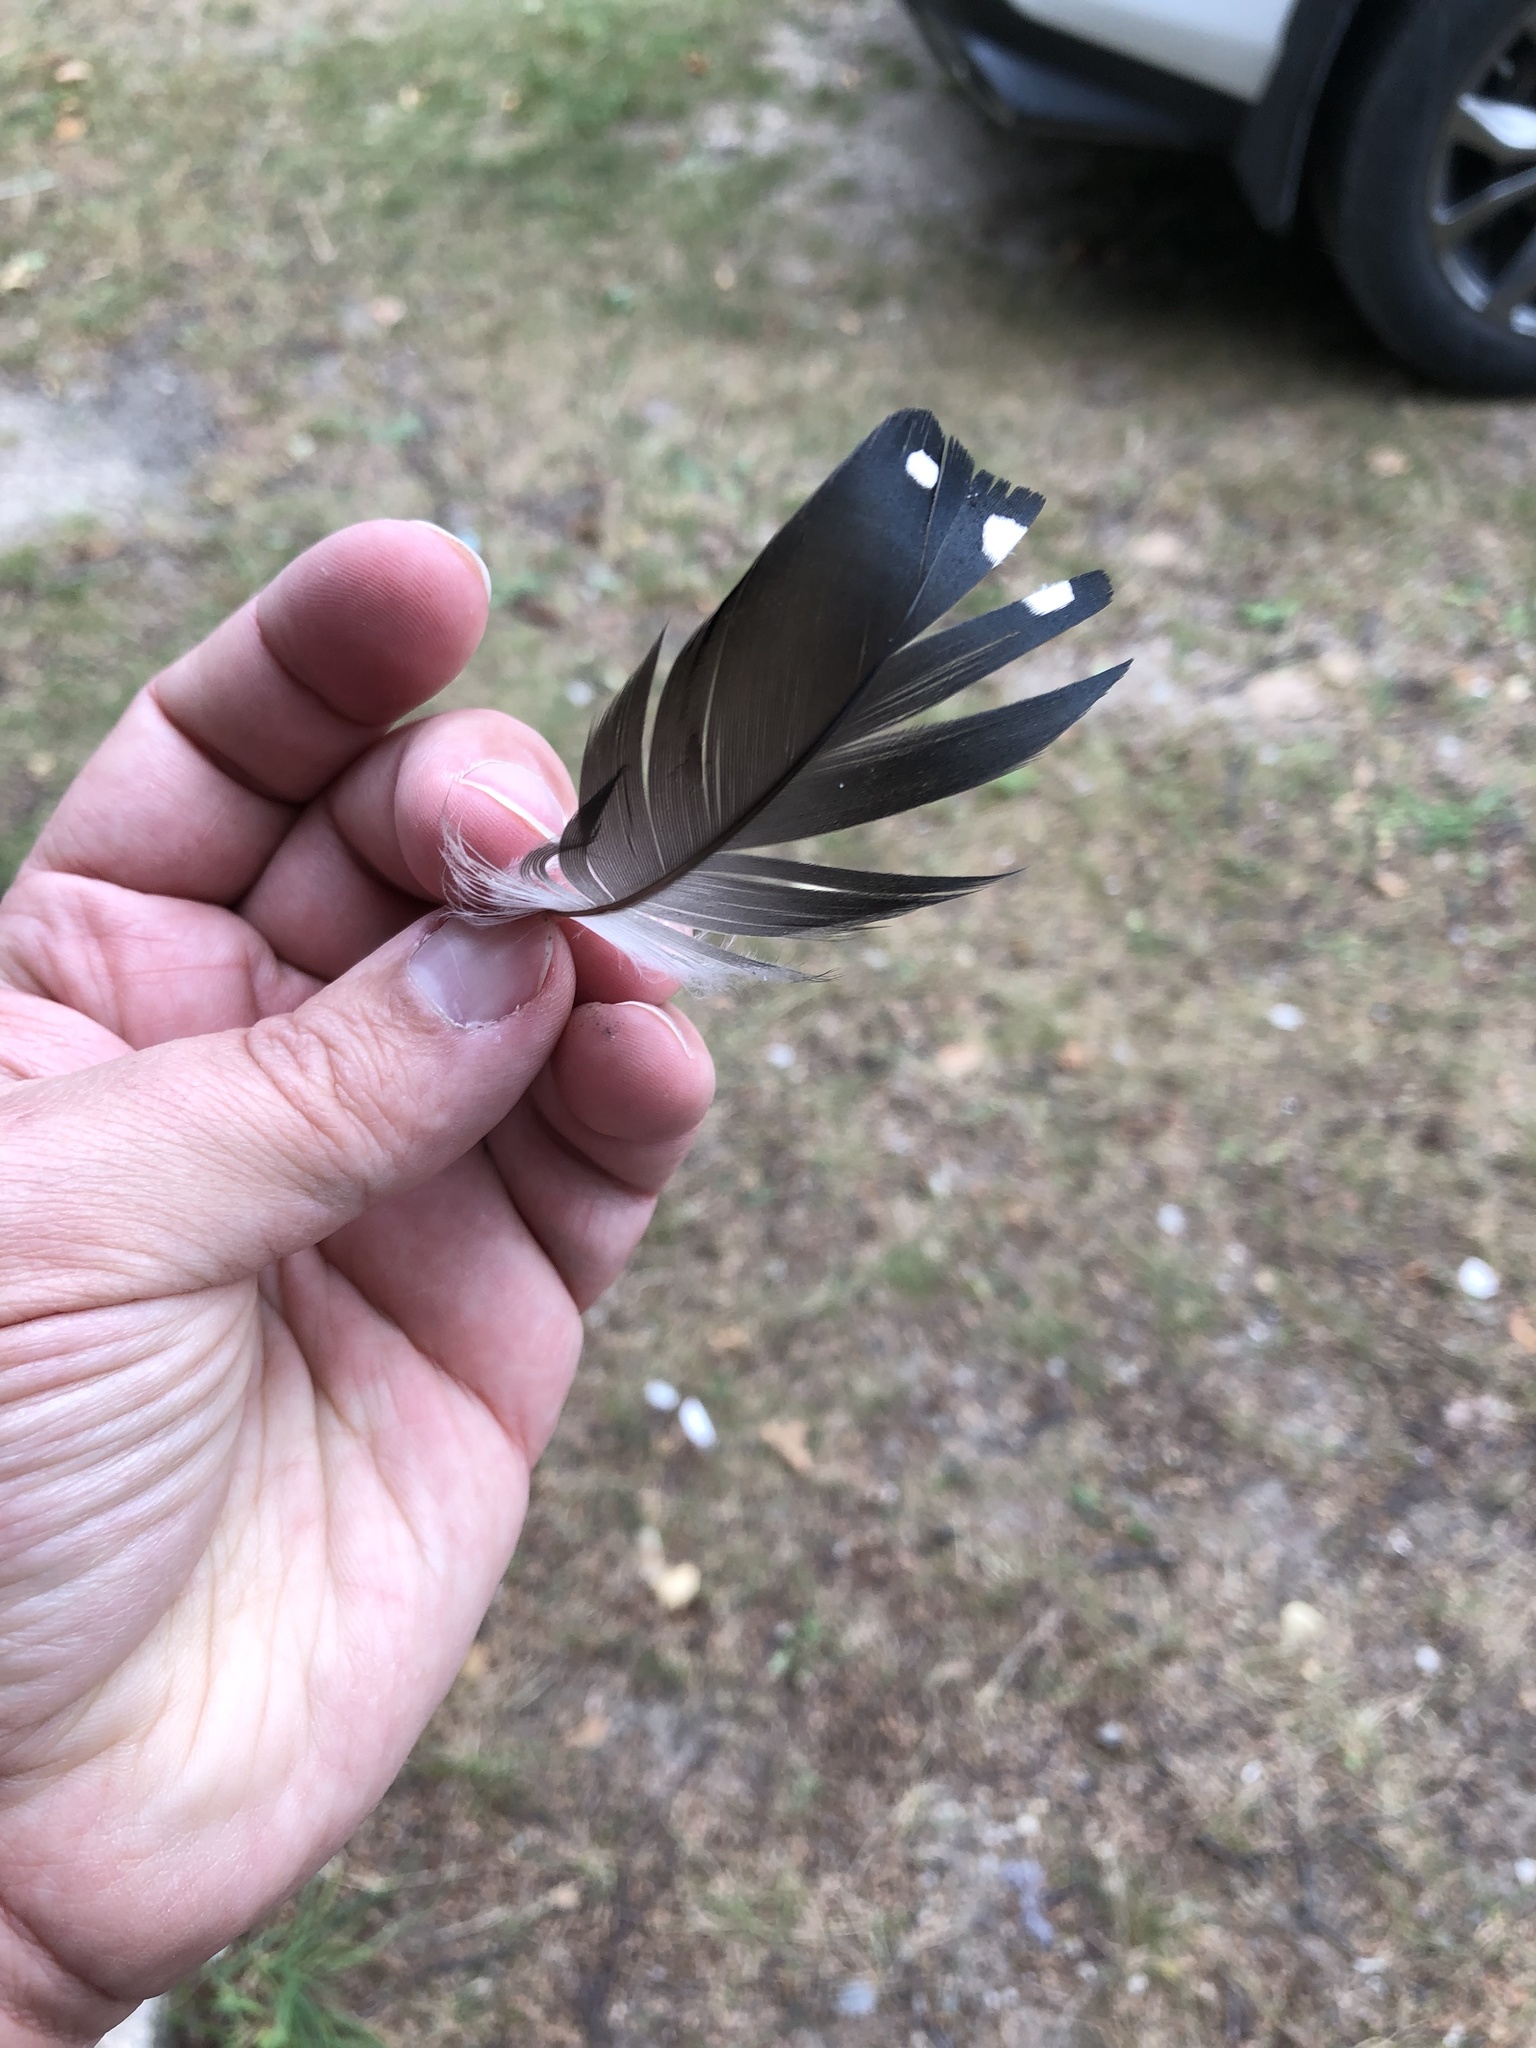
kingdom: Animalia
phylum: Chordata
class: Aves
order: Gaviiformes
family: Gaviidae
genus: Gavia
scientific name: Gavia immer
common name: Common loon
